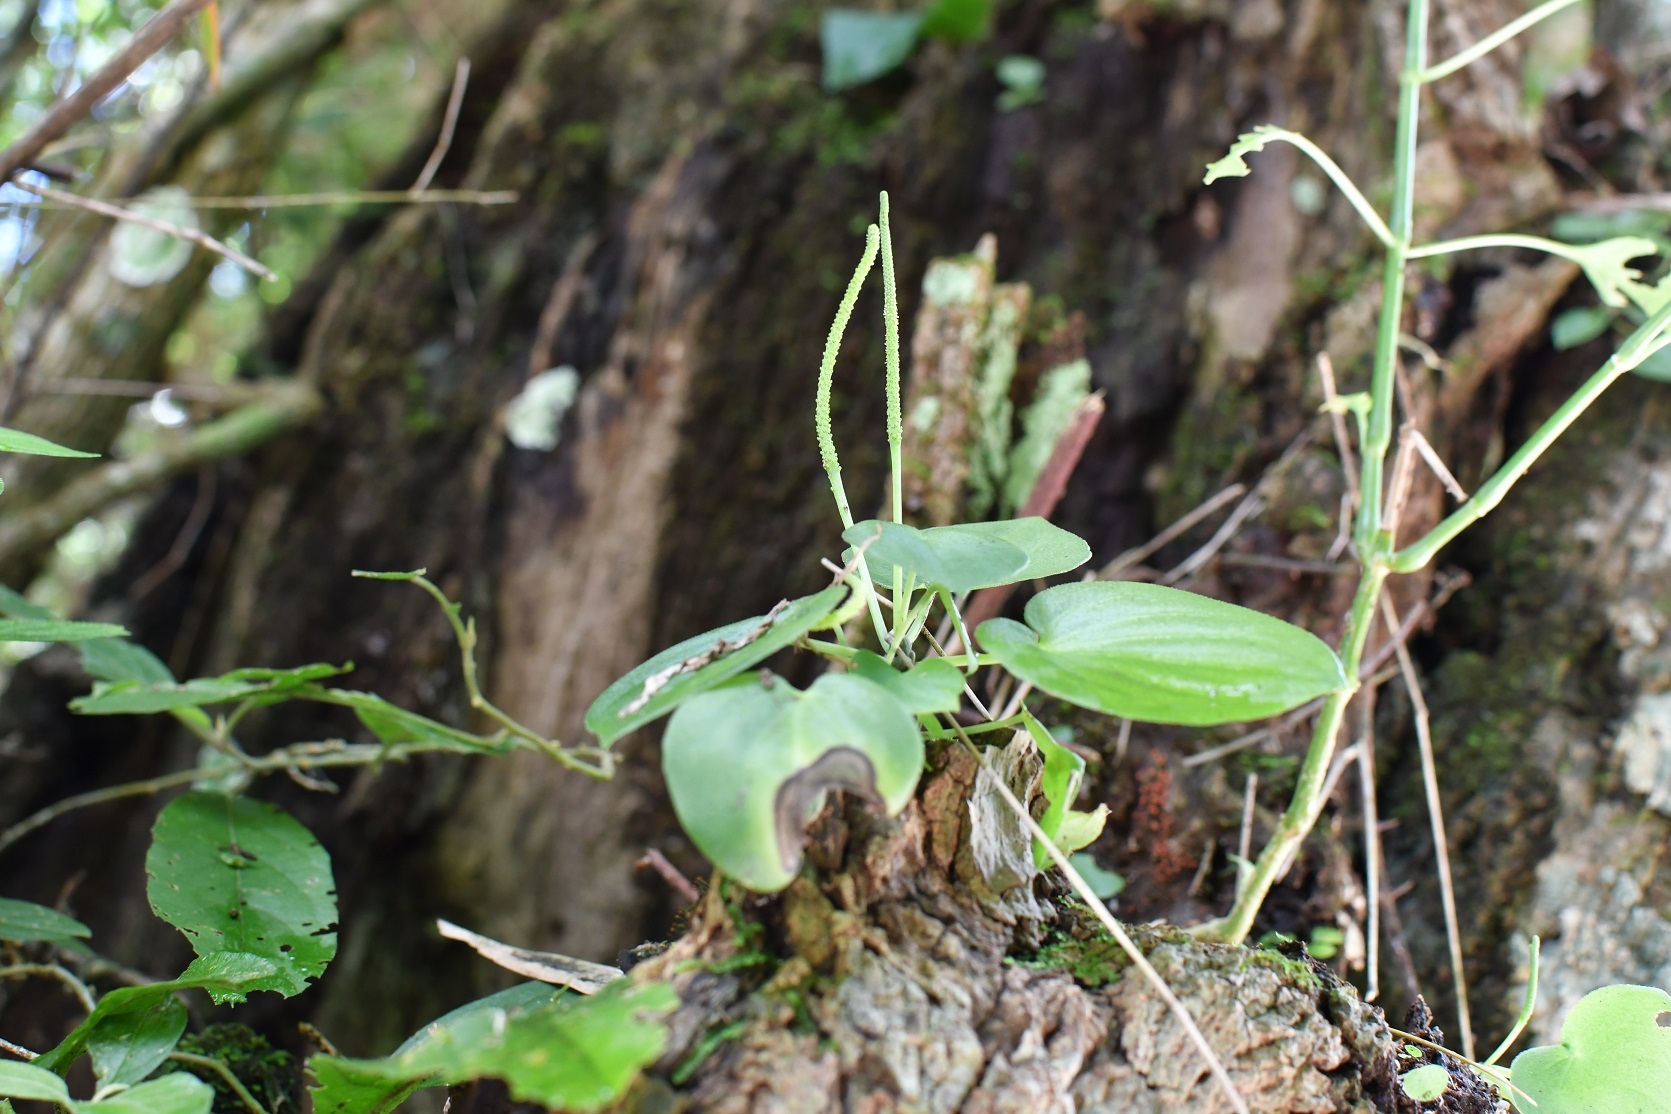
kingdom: Plantae
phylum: Tracheophyta
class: Magnoliopsida
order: Piperales
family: Piperaceae
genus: Peperomia
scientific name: Peperomia lanceolatopeltata
